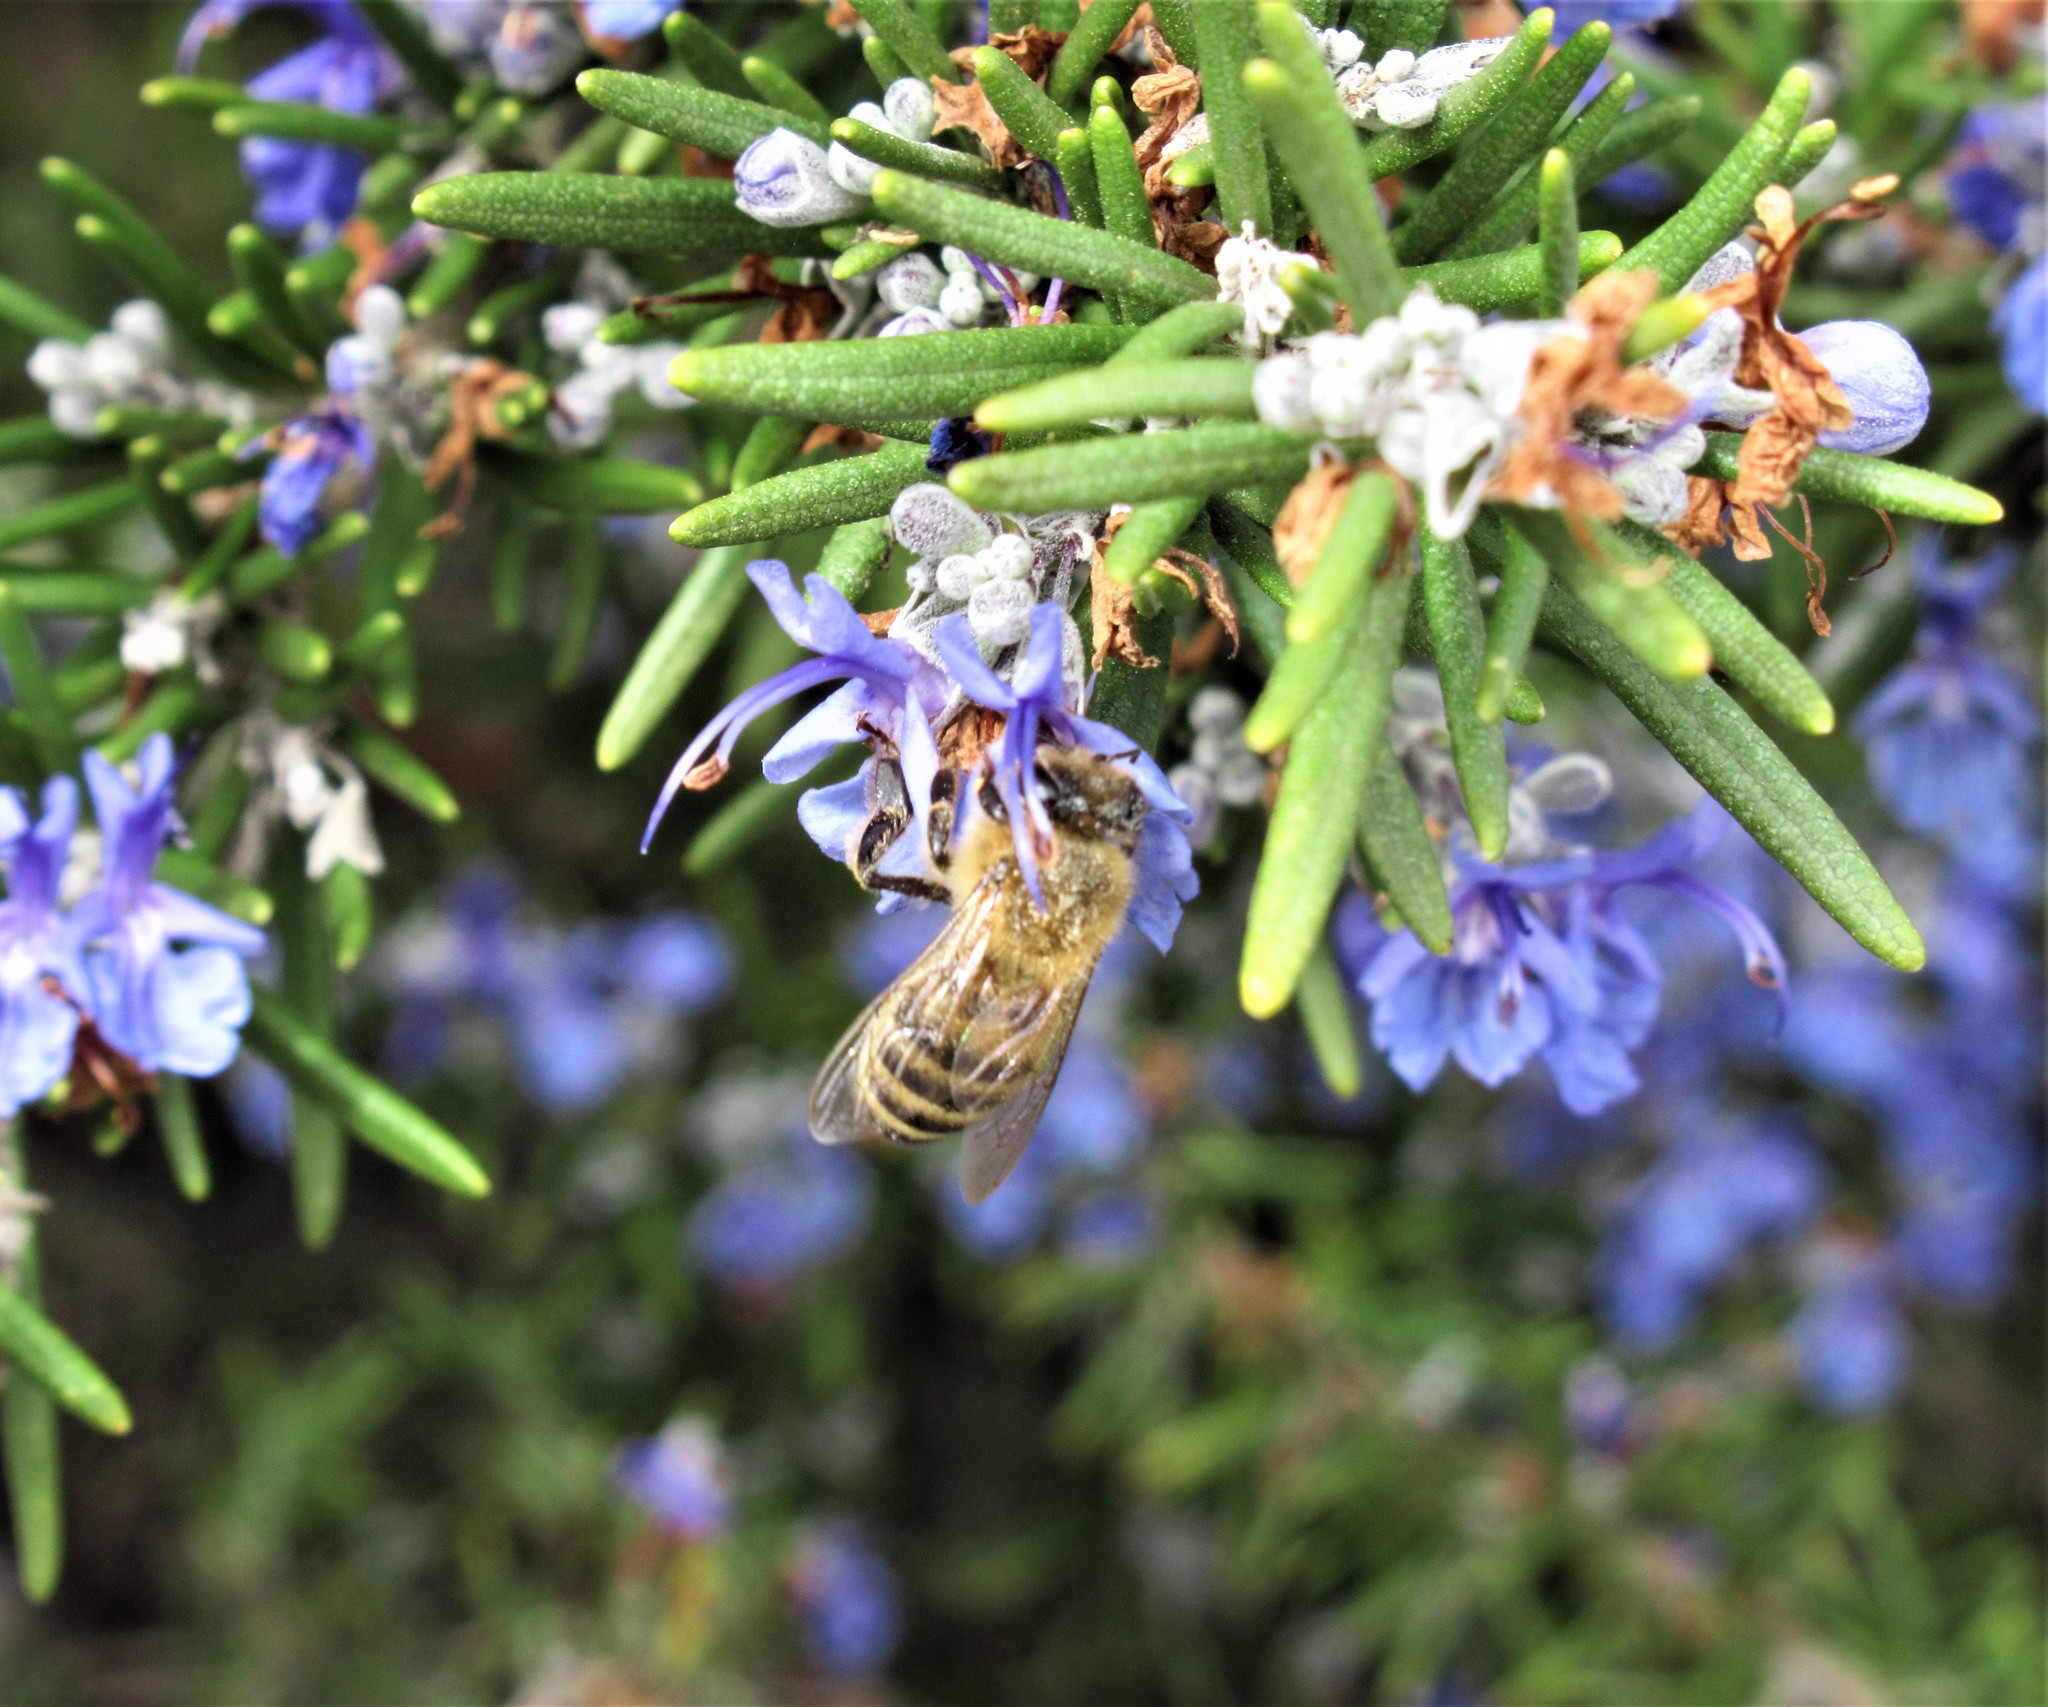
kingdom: Animalia
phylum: Arthropoda
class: Insecta
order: Hymenoptera
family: Apidae
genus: Apis
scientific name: Apis mellifera
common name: Honey bee
